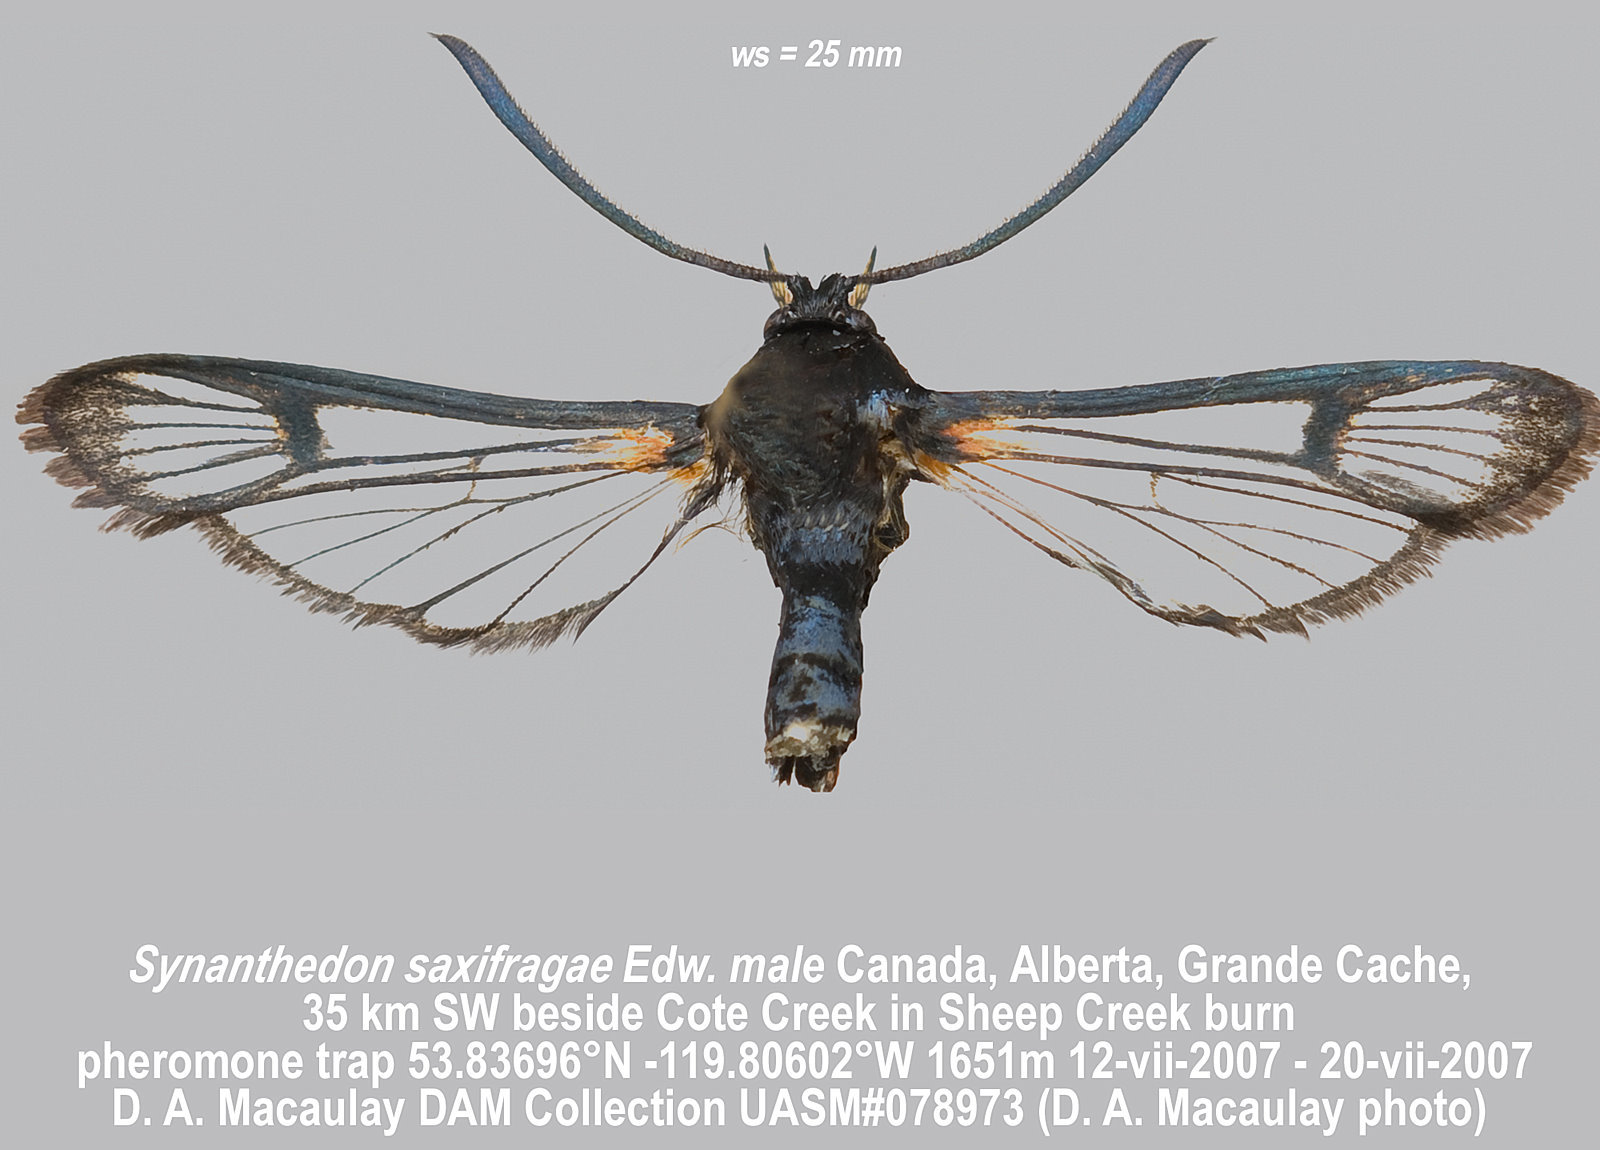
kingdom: Animalia
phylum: Arthropoda
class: Insecta
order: Lepidoptera
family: Sesiidae
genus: Synanthedon
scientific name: Synanthedon saxifragae
